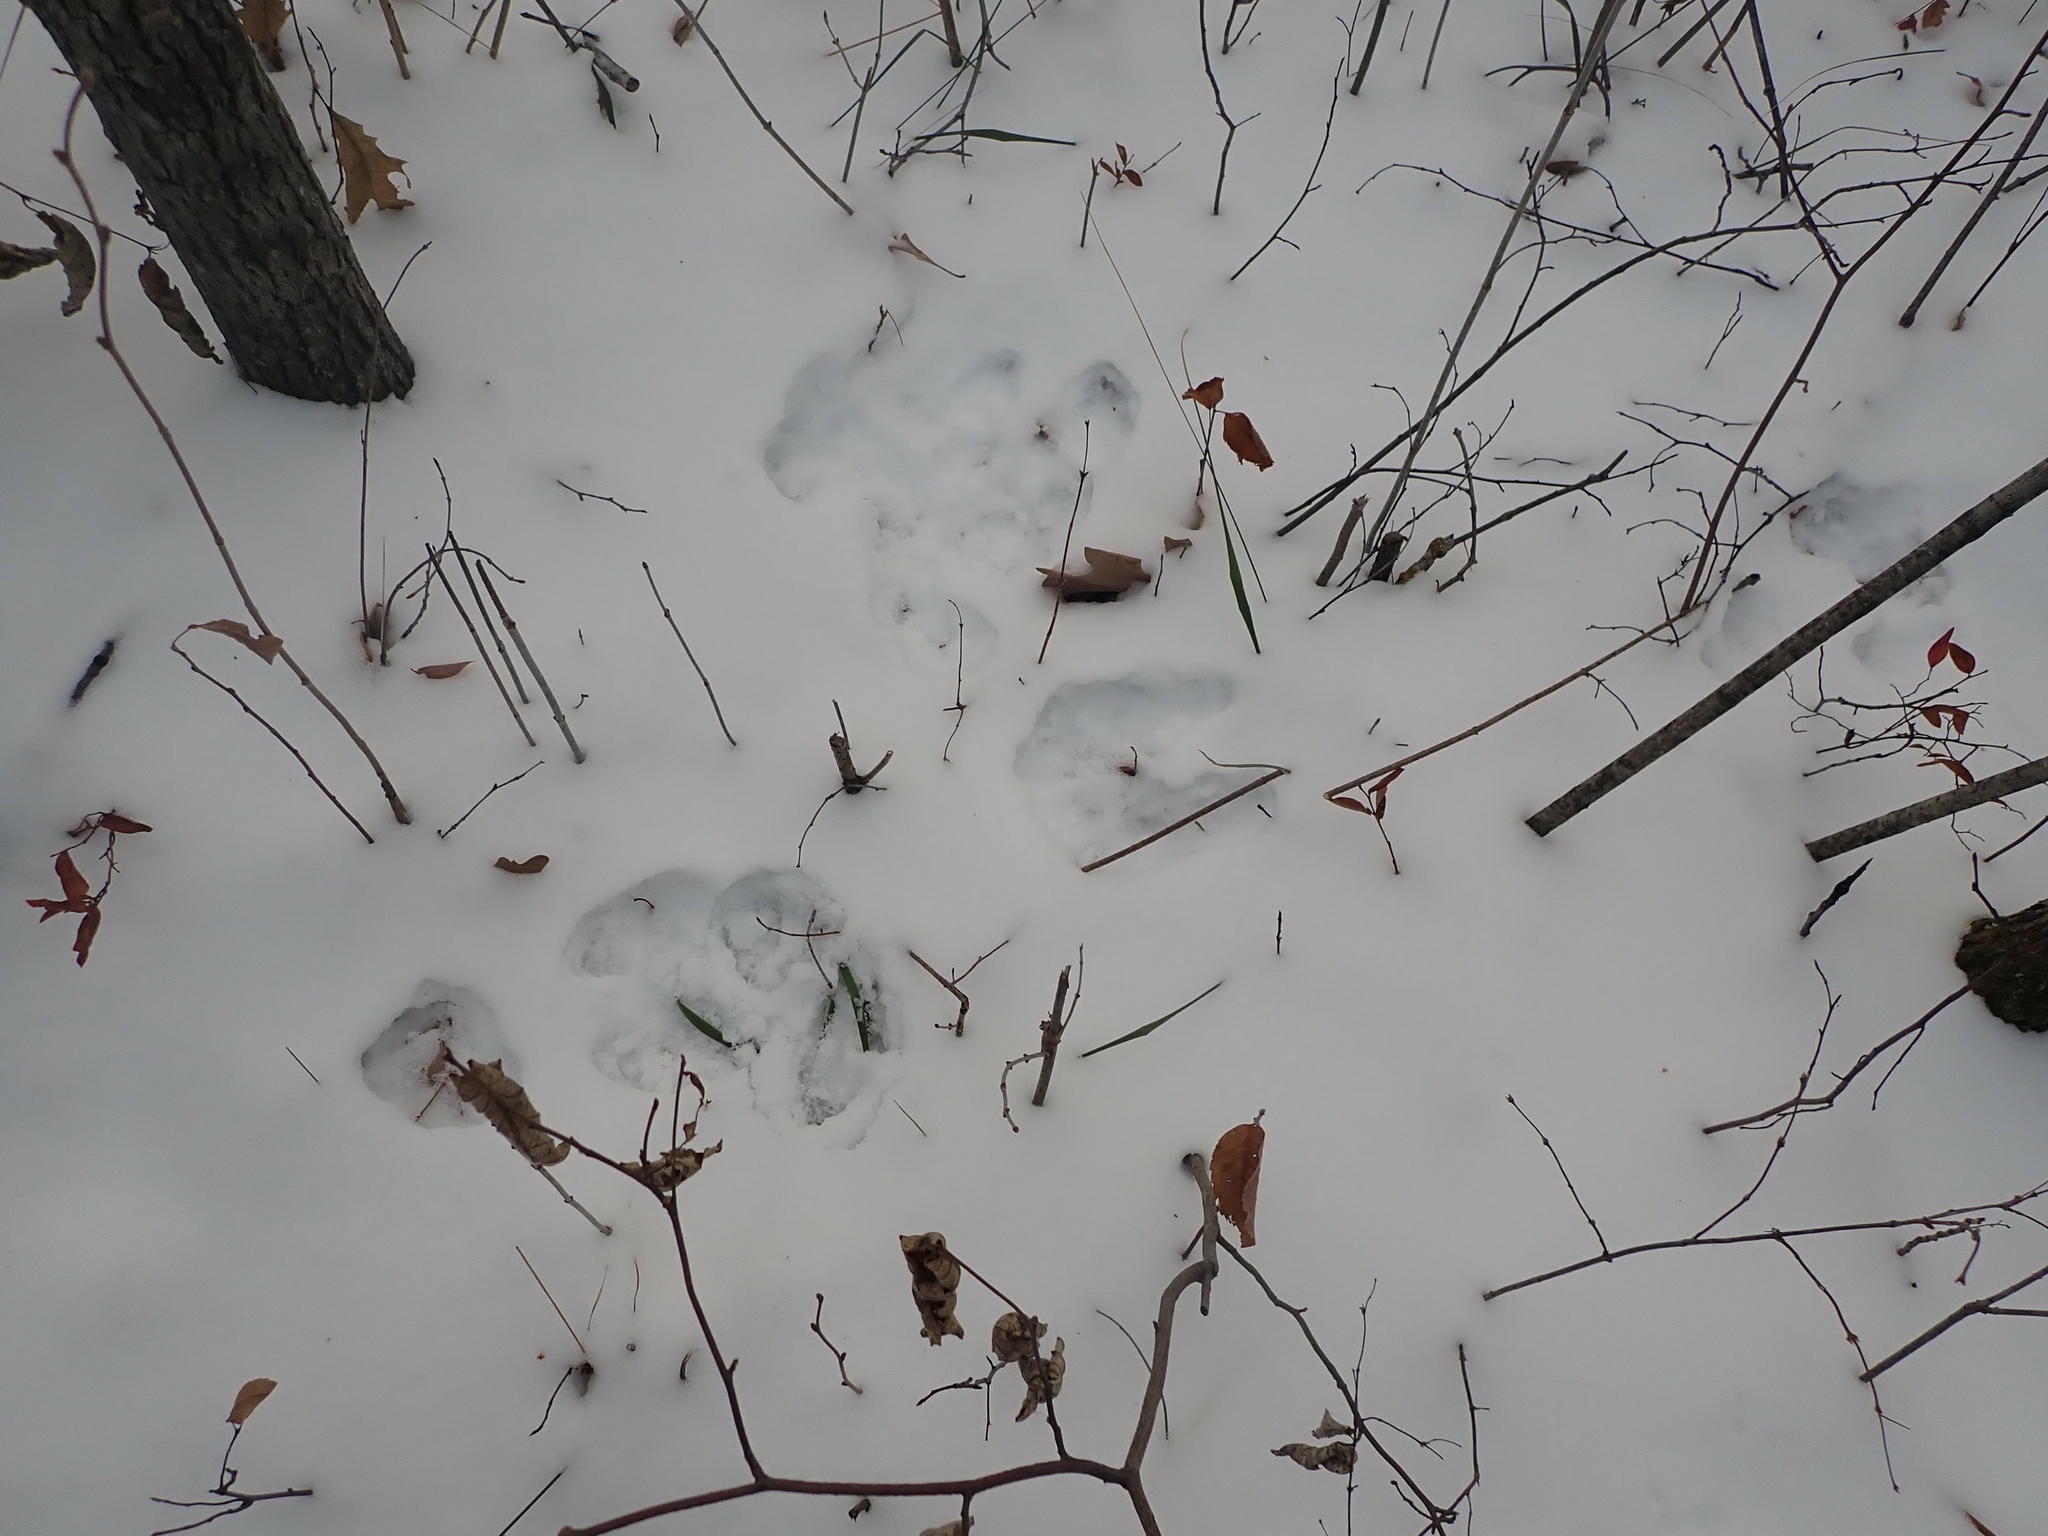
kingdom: Animalia
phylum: Chordata
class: Mammalia
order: Lagomorpha
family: Leporidae
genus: Lepus
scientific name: Lepus americanus
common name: Snowshoe hare
